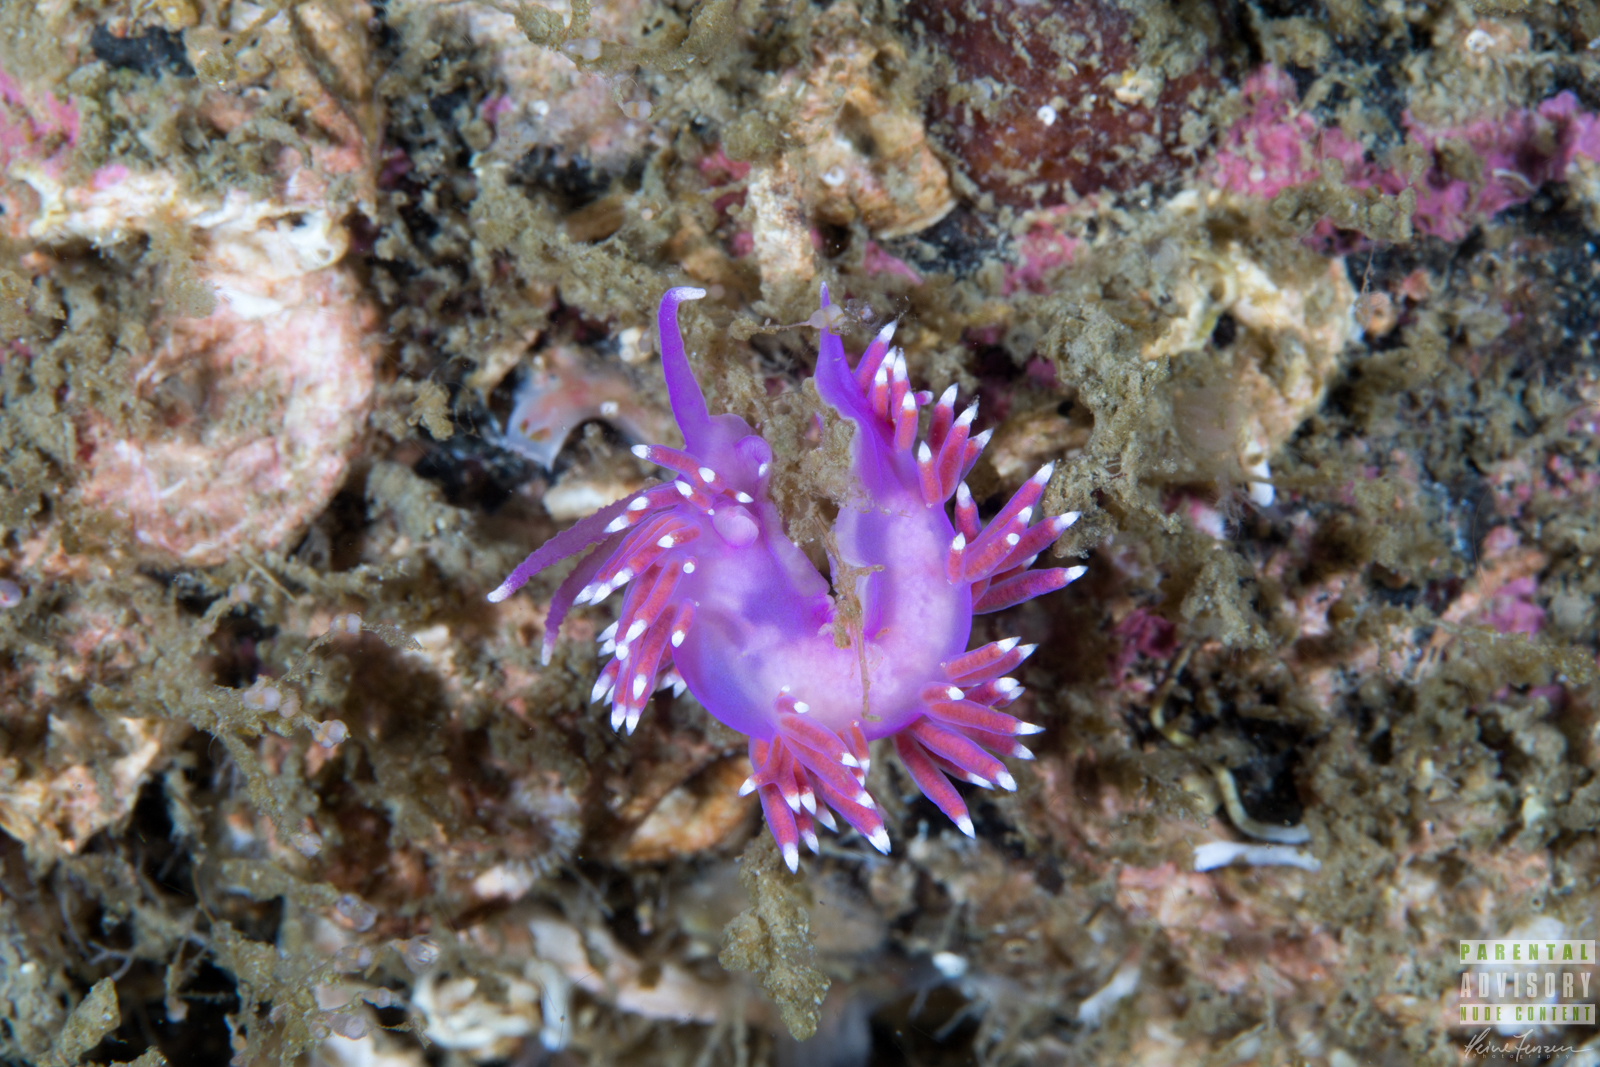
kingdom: Animalia
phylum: Mollusca
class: Gastropoda
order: Nudibranchia
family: Flabellinidae
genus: Edmundsella
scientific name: Edmundsella pedata
